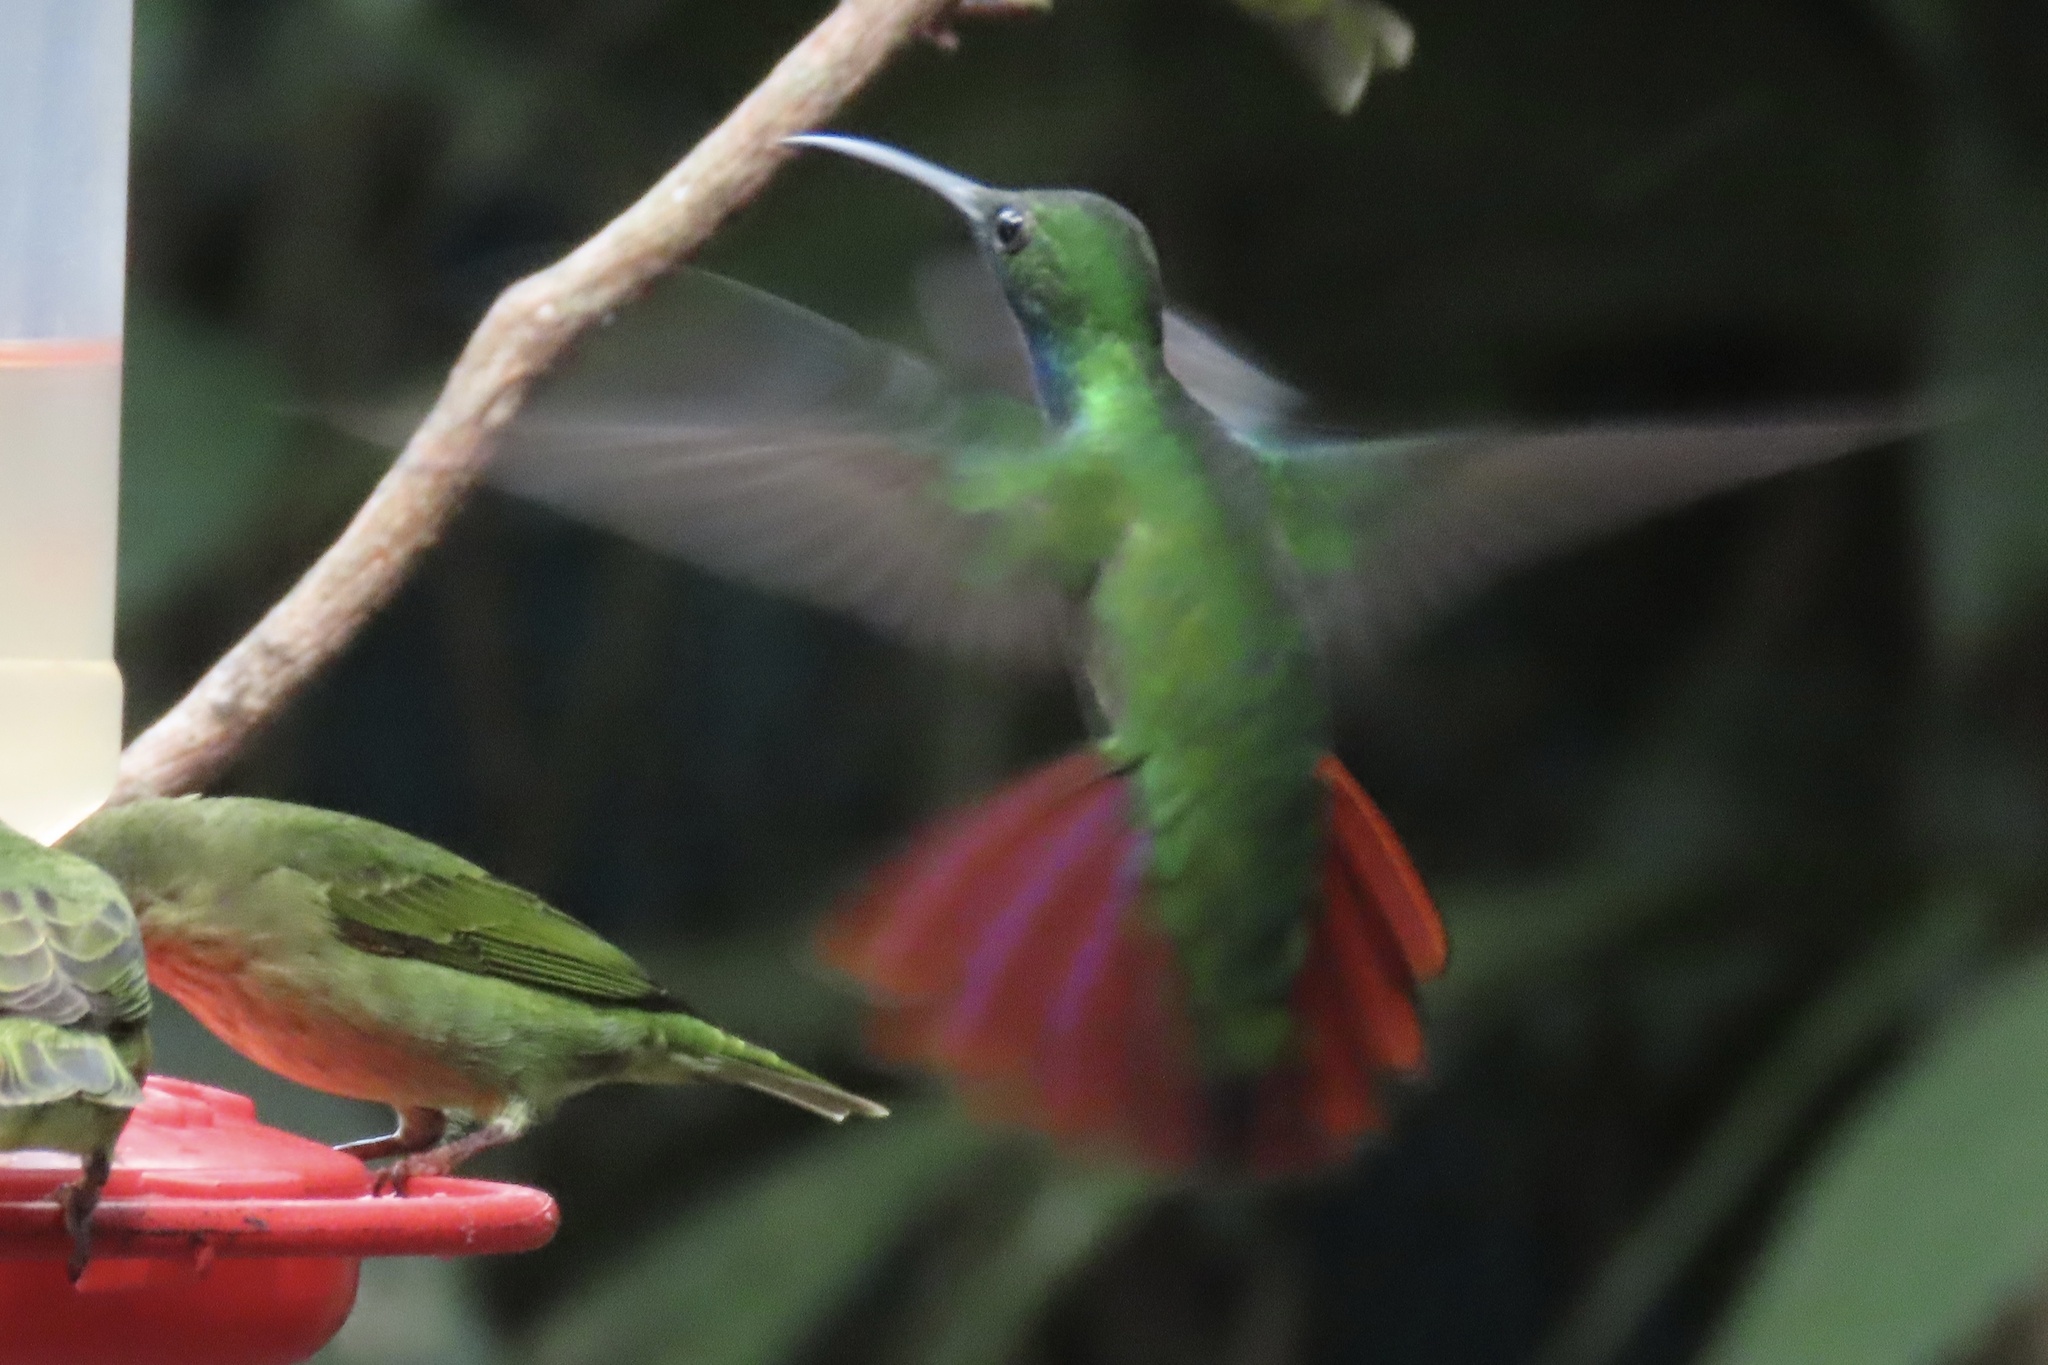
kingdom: Animalia
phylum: Chordata
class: Aves
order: Apodiformes
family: Trochilidae
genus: Anthracothorax
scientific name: Anthracothorax prevostii
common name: Green-breasted mango
